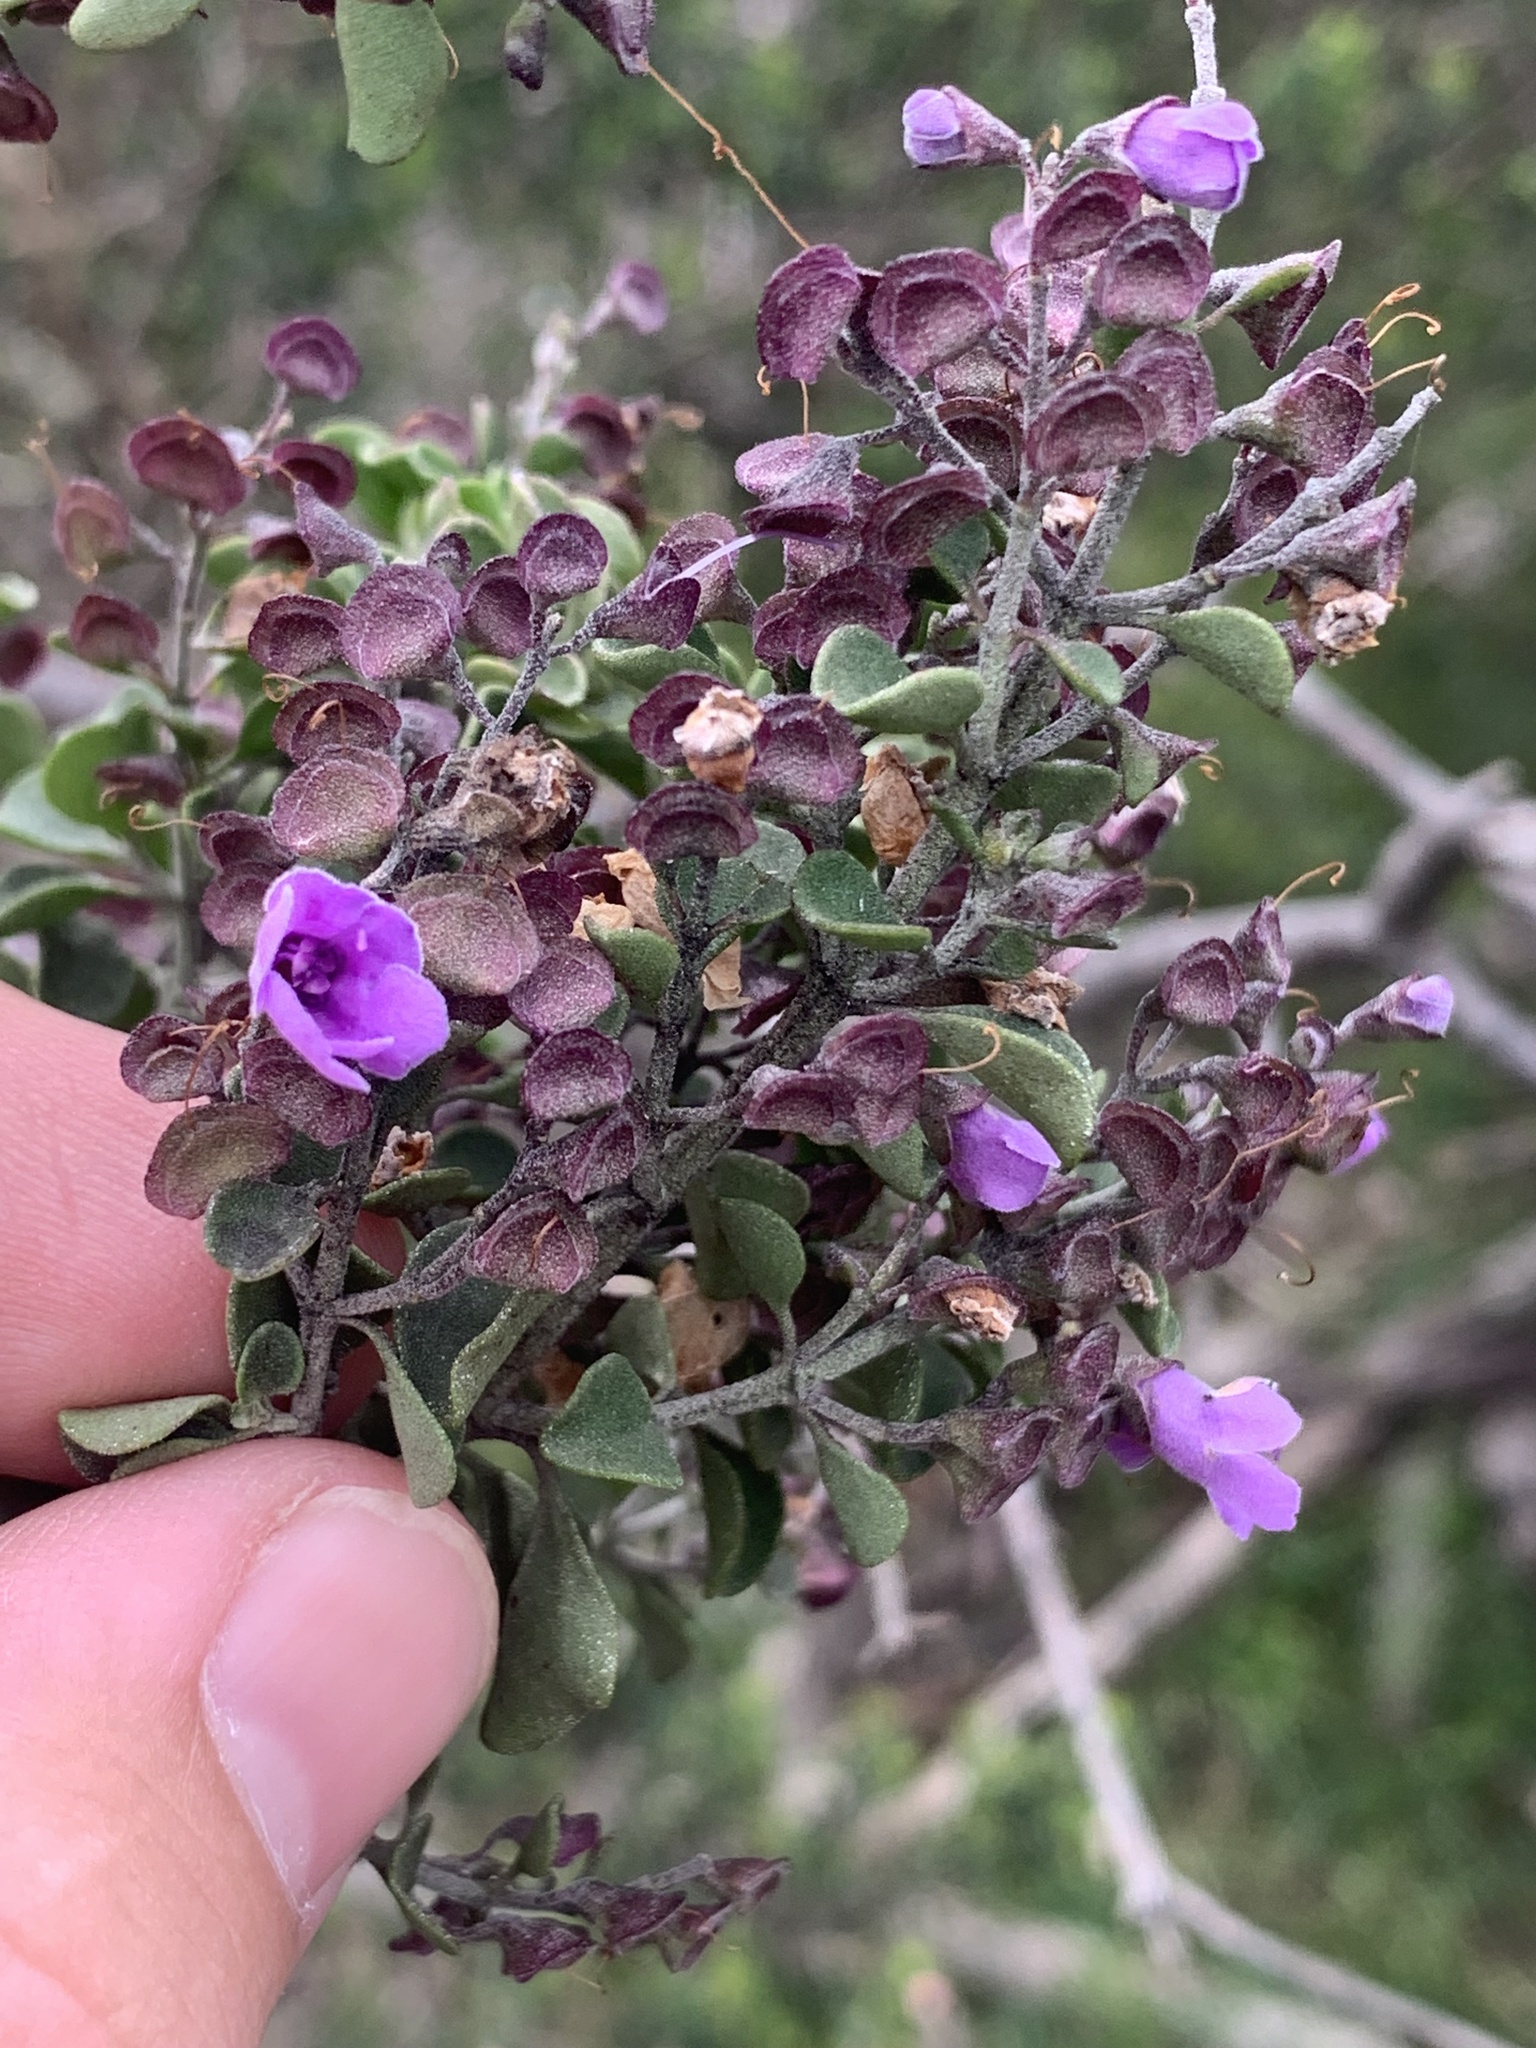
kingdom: Plantae
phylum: Tracheophyta
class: Magnoliopsida
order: Lamiales
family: Lamiaceae
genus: Prostanthera
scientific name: Prostanthera rotundifolia
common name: Round-leaf mintbush
